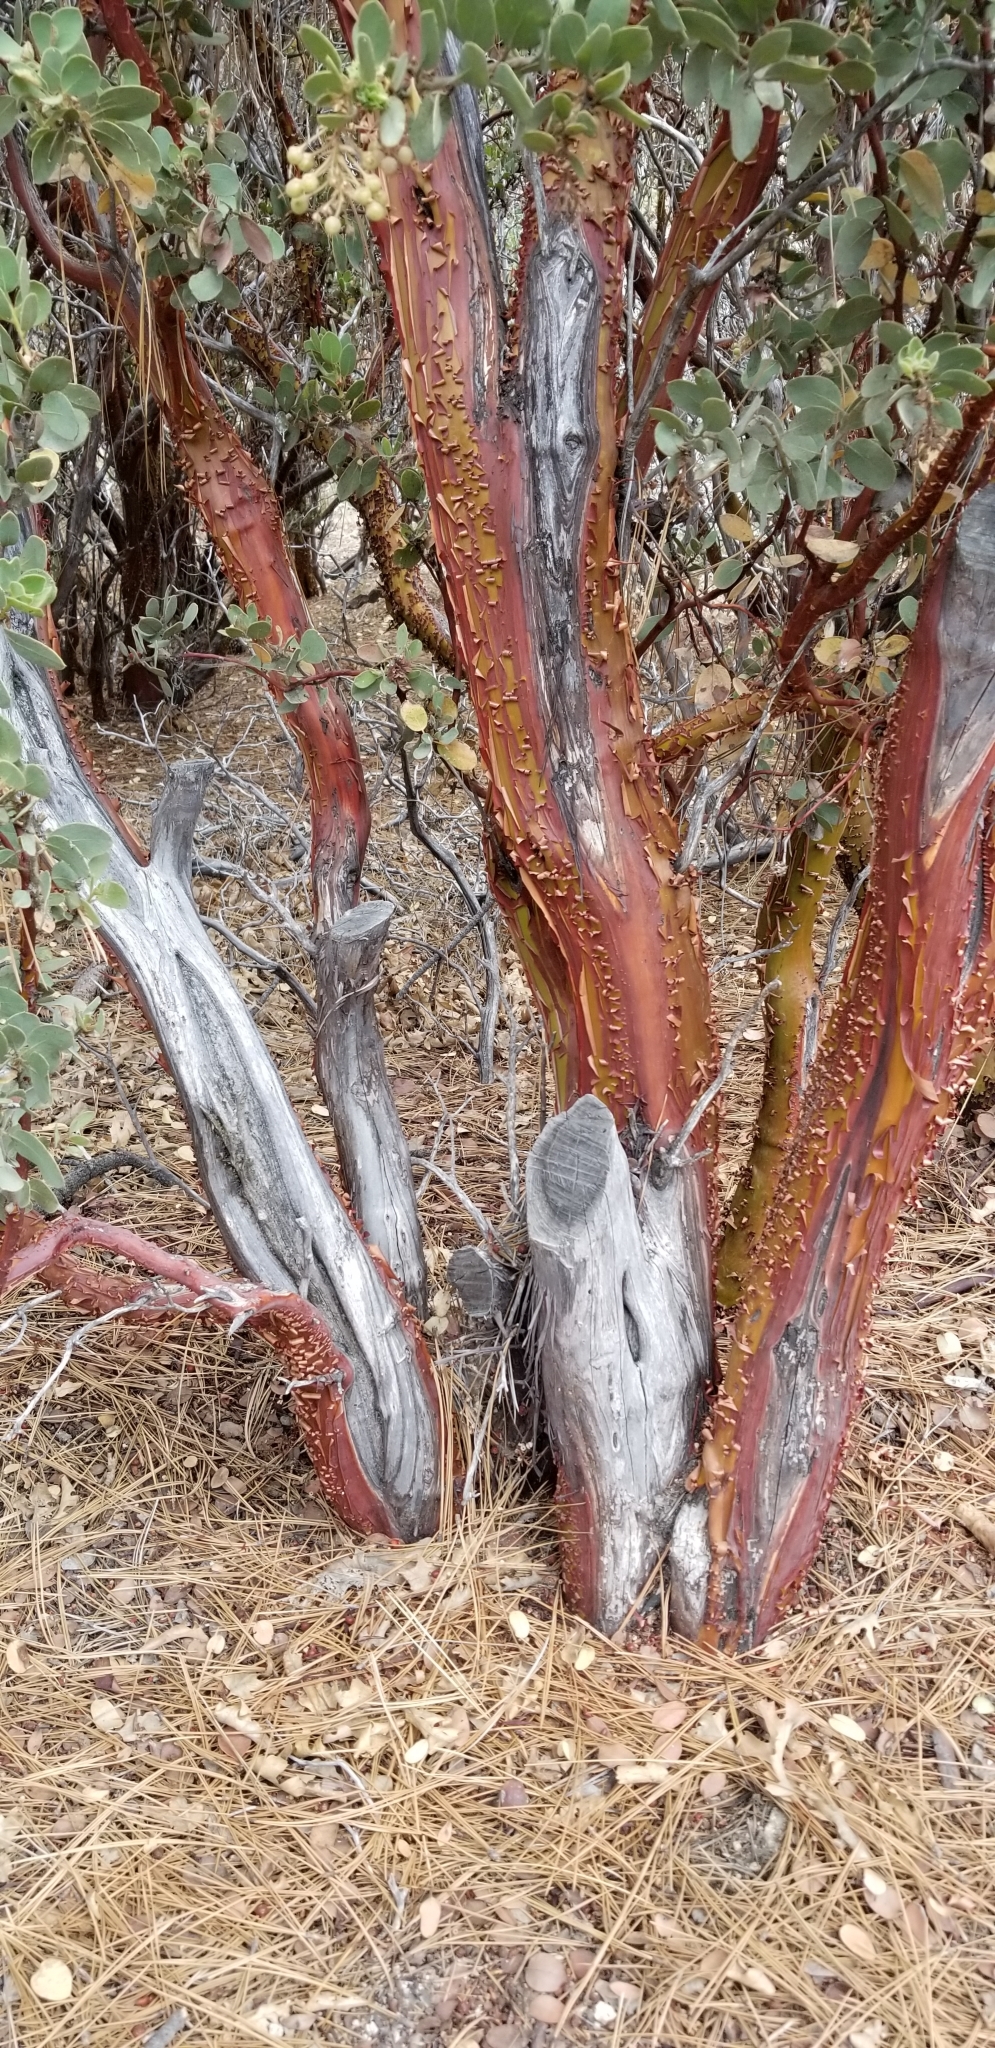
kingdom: Plantae
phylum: Tracheophyta
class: Magnoliopsida
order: Ericales
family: Ericaceae
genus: Arctostaphylos
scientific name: Arctostaphylos pringlei
